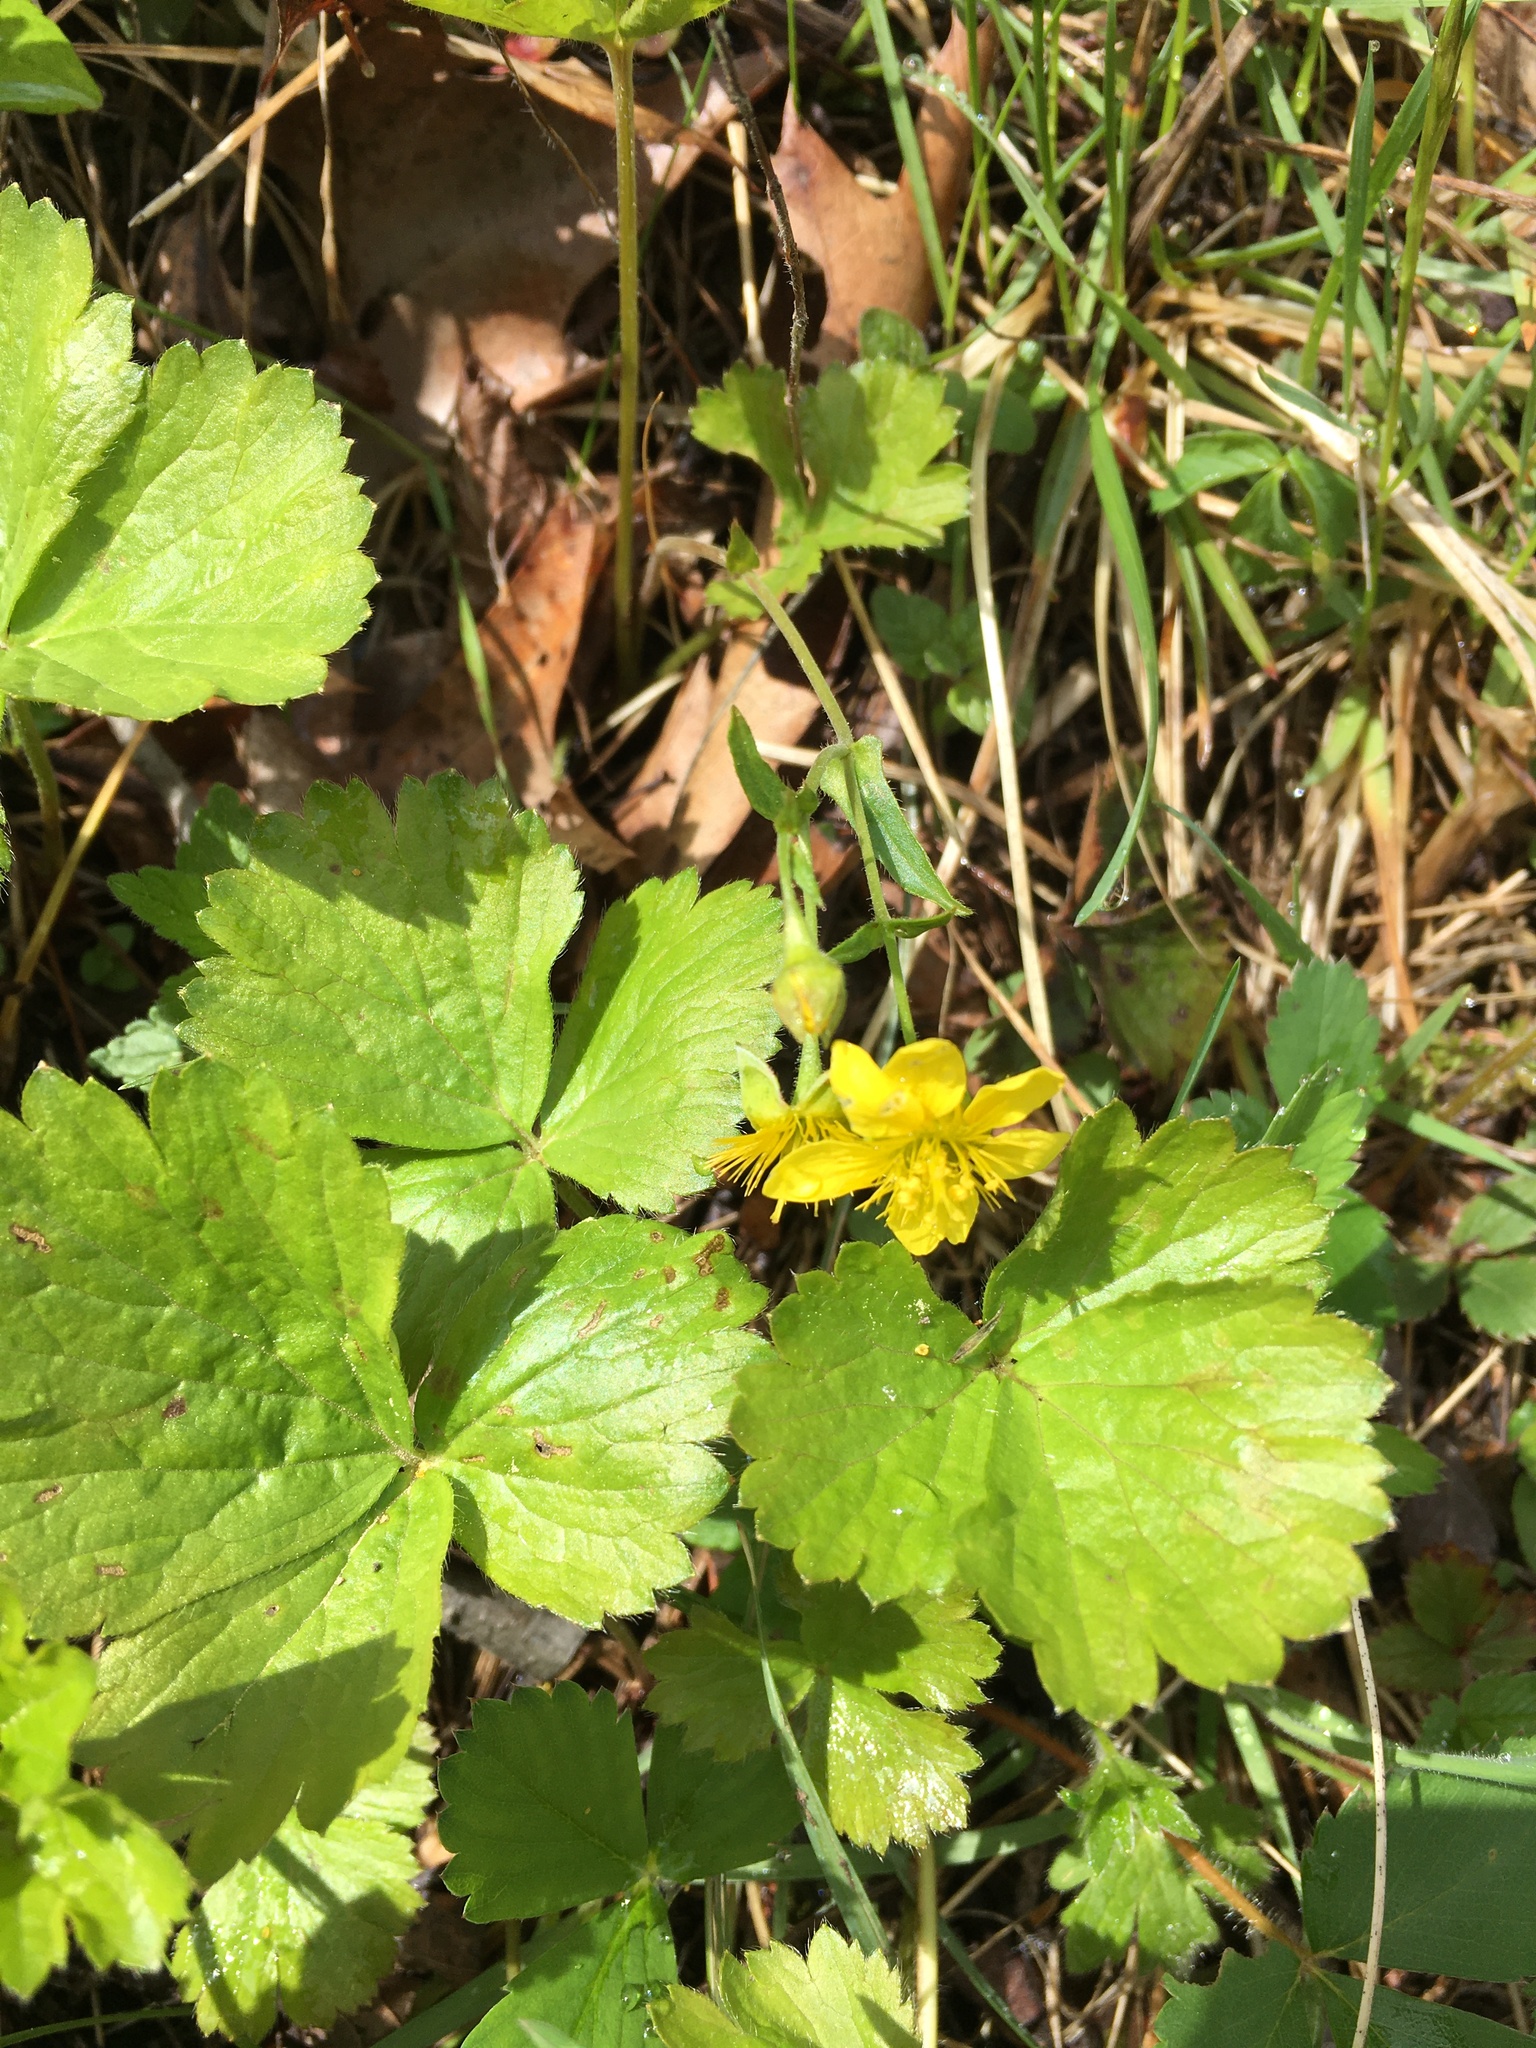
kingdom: Plantae
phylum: Tracheophyta
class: Magnoliopsida
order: Rosales
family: Rosaceae
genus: Geum
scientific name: Geum fragarioides
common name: Appalachian barren strawberry
